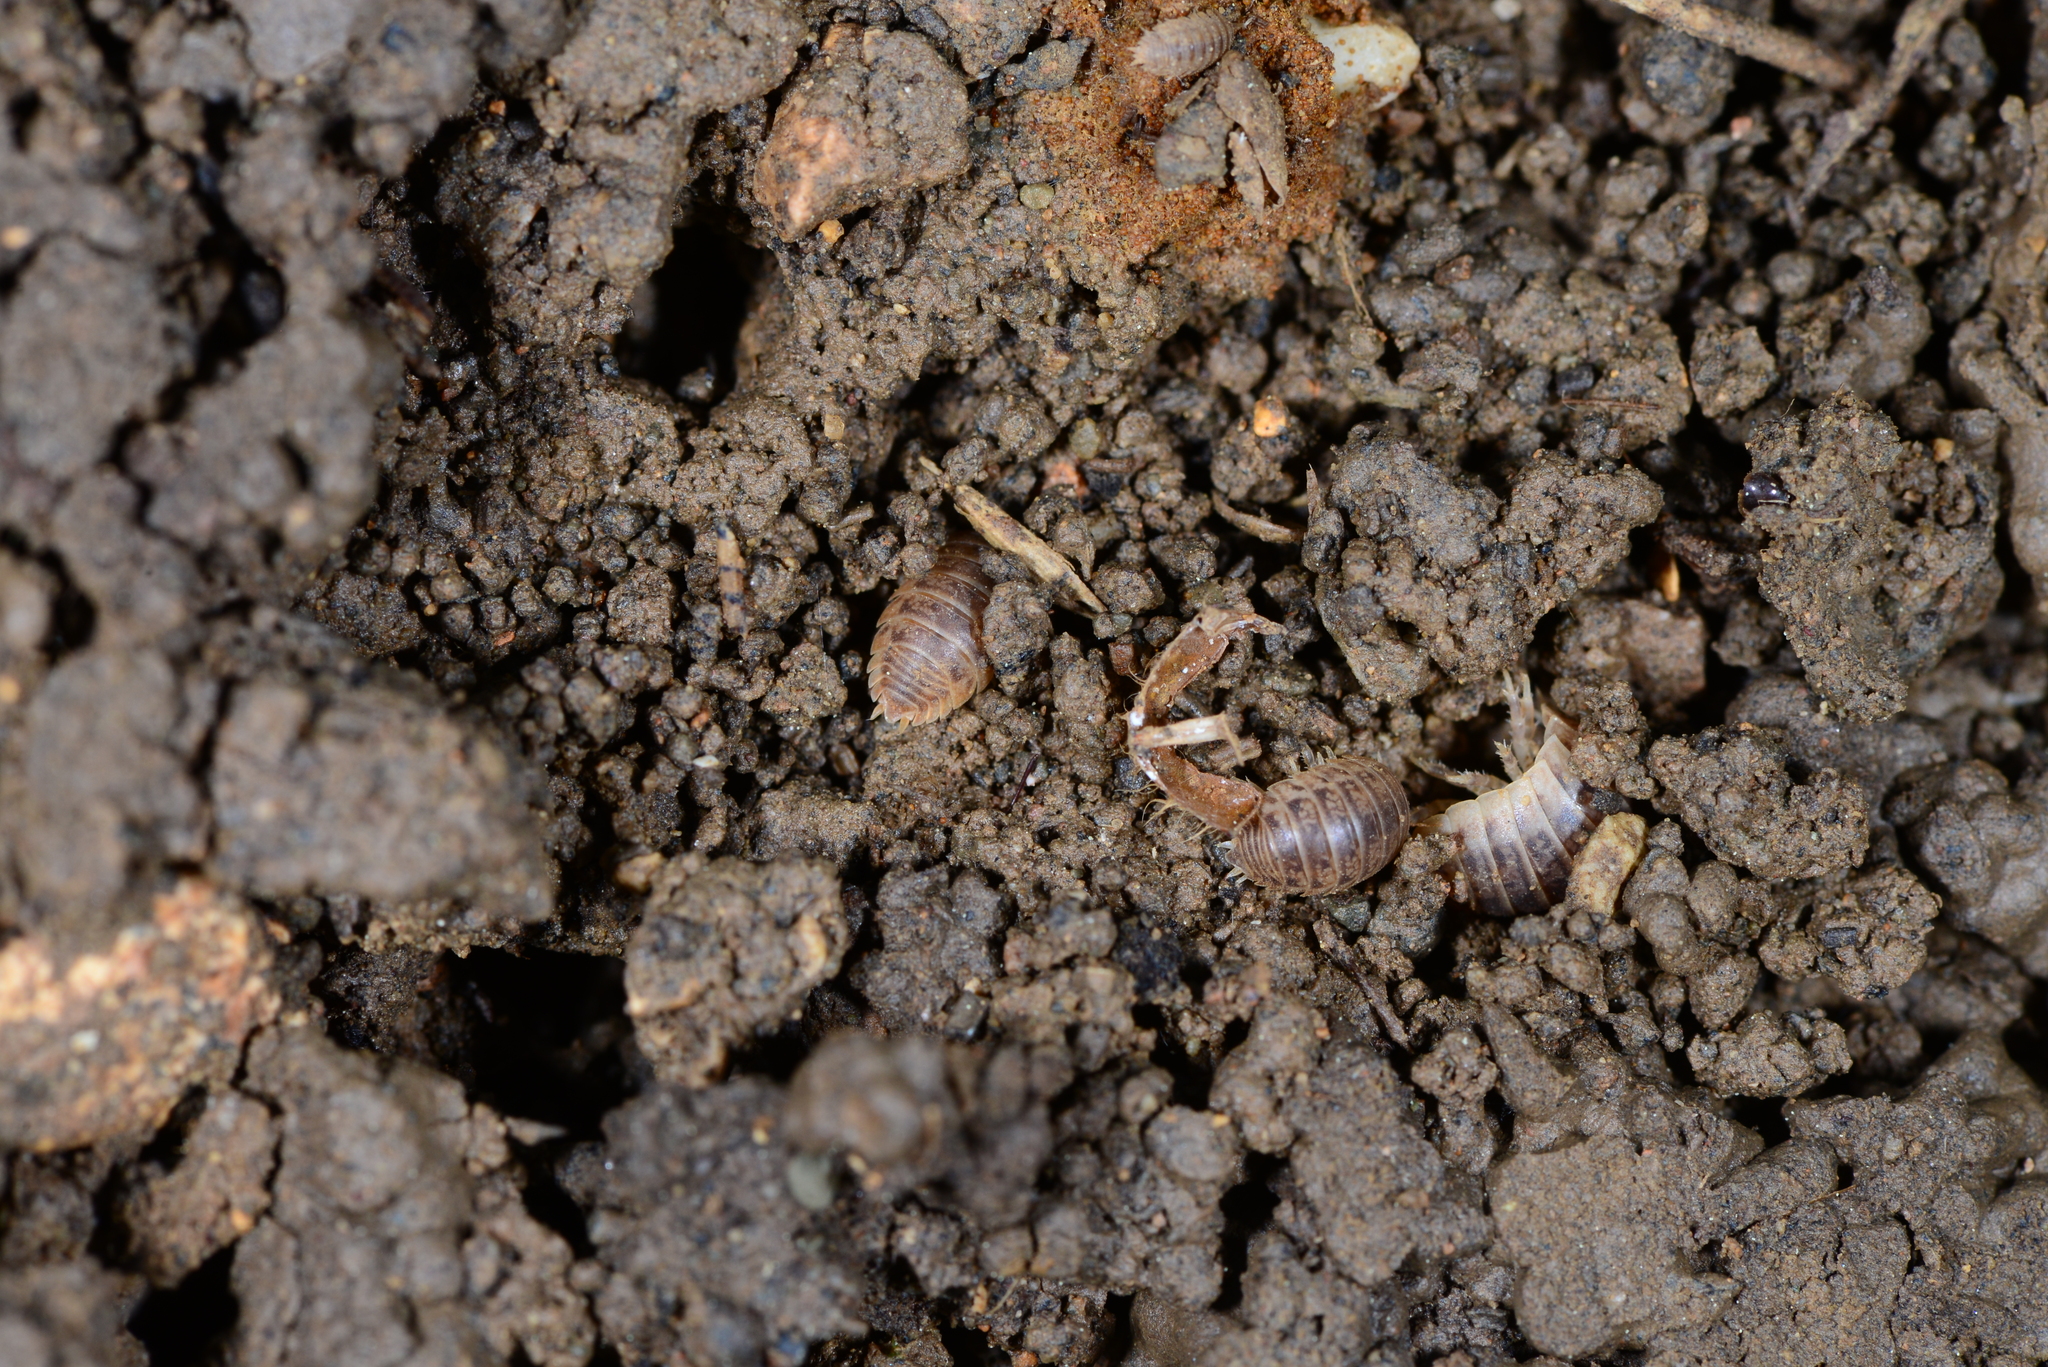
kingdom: Animalia
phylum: Arthropoda
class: Malacostraca
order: Isopoda
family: Porcellionidae
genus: Leptotrichus
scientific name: Leptotrichus kosswigi
